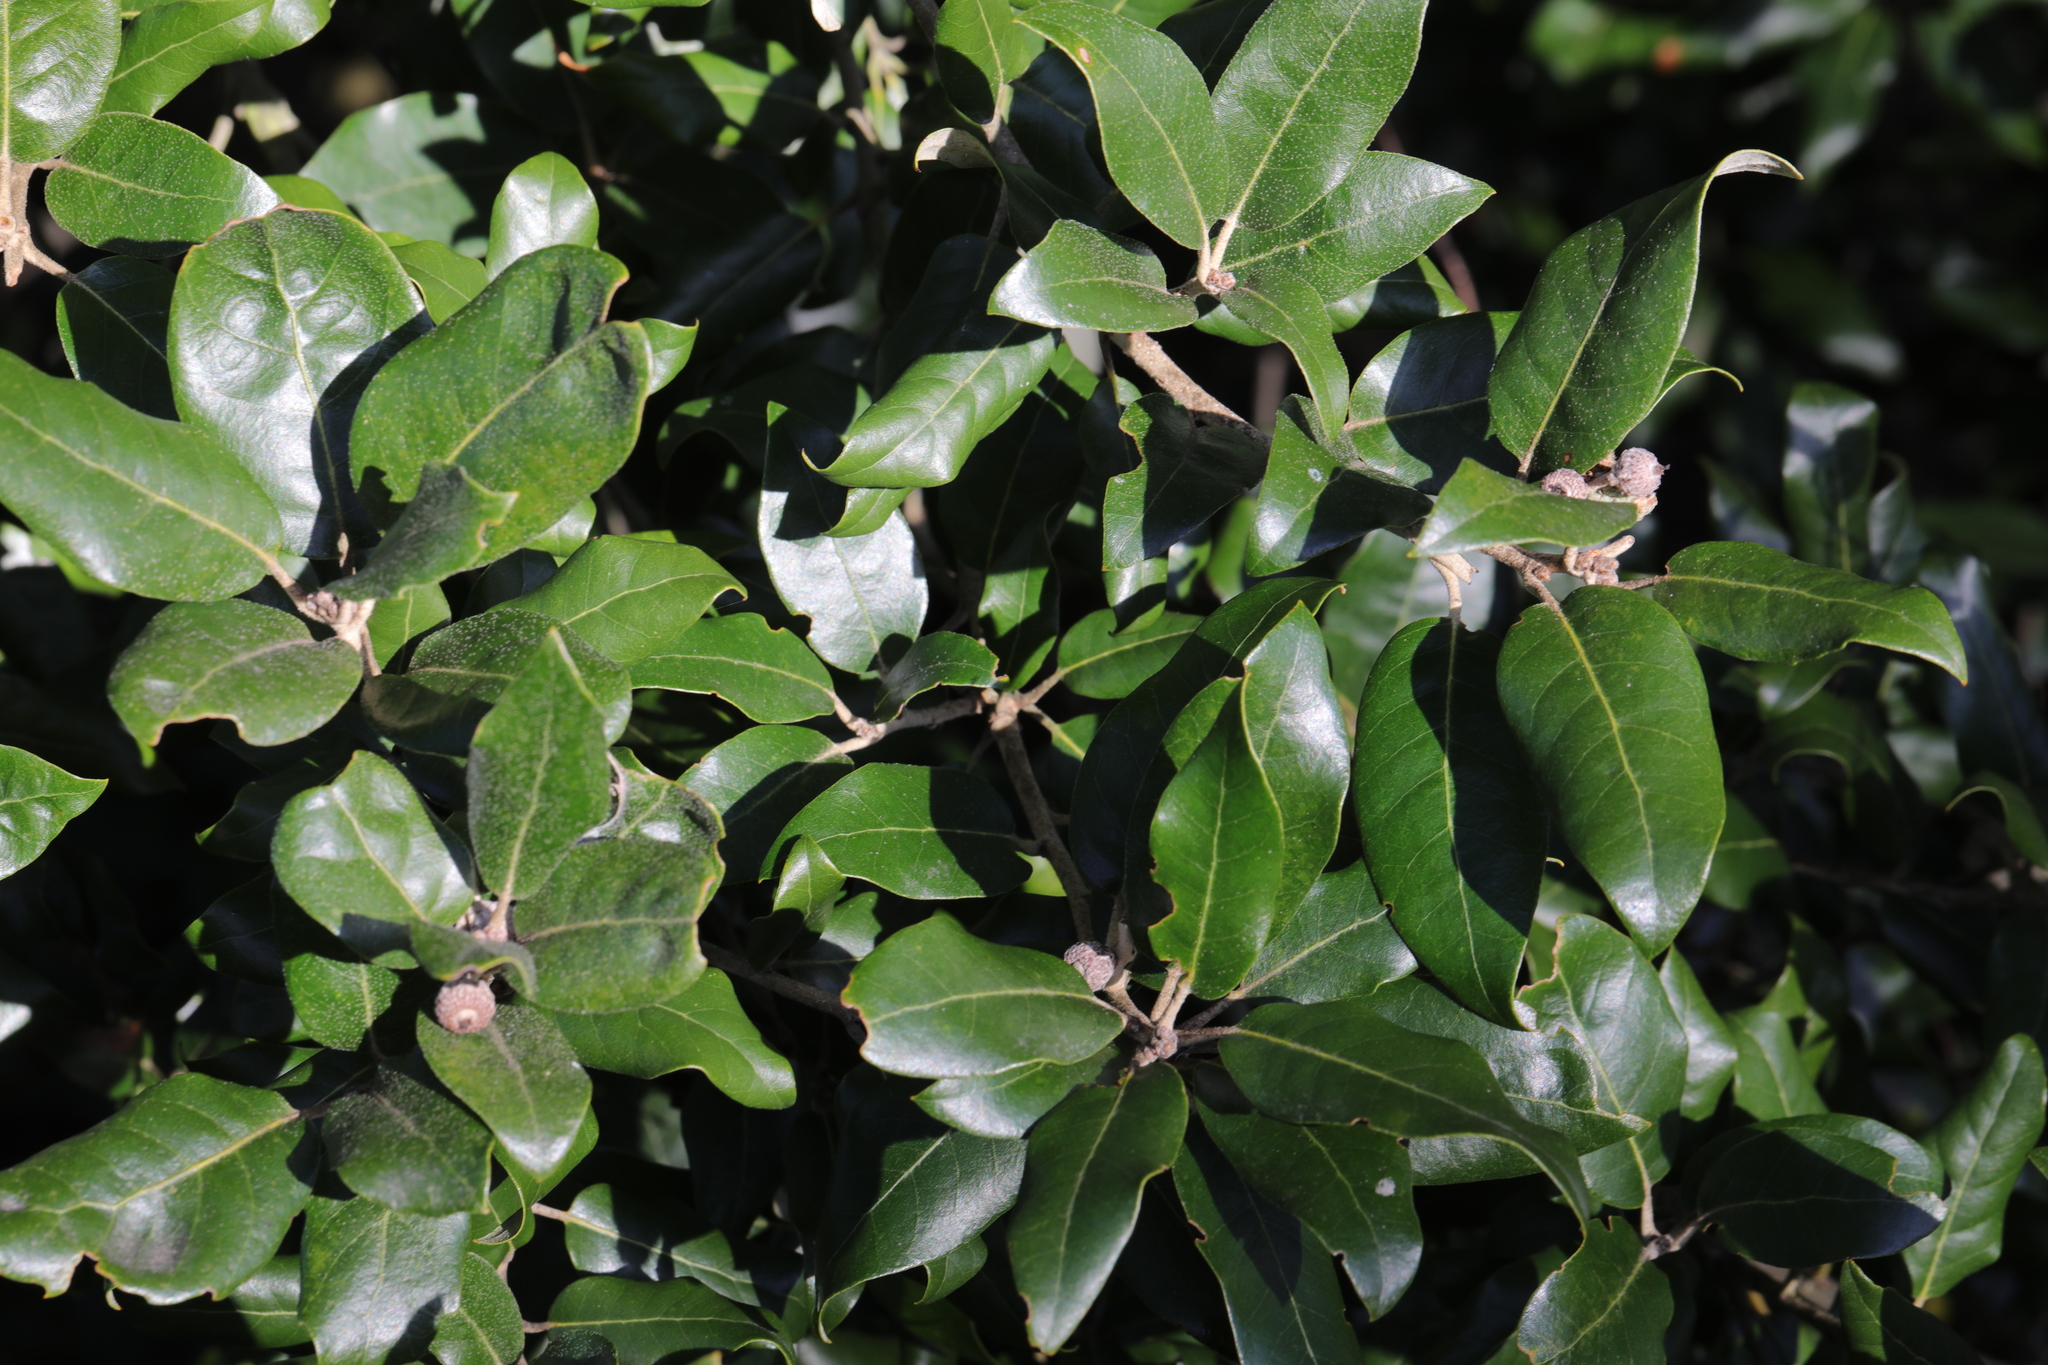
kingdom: Plantae
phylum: Tracheophyta
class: Magnoliopsida
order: Fagales
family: Fagaceae
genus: Quercus
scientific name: Quercus ilex
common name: Evergreen oak
